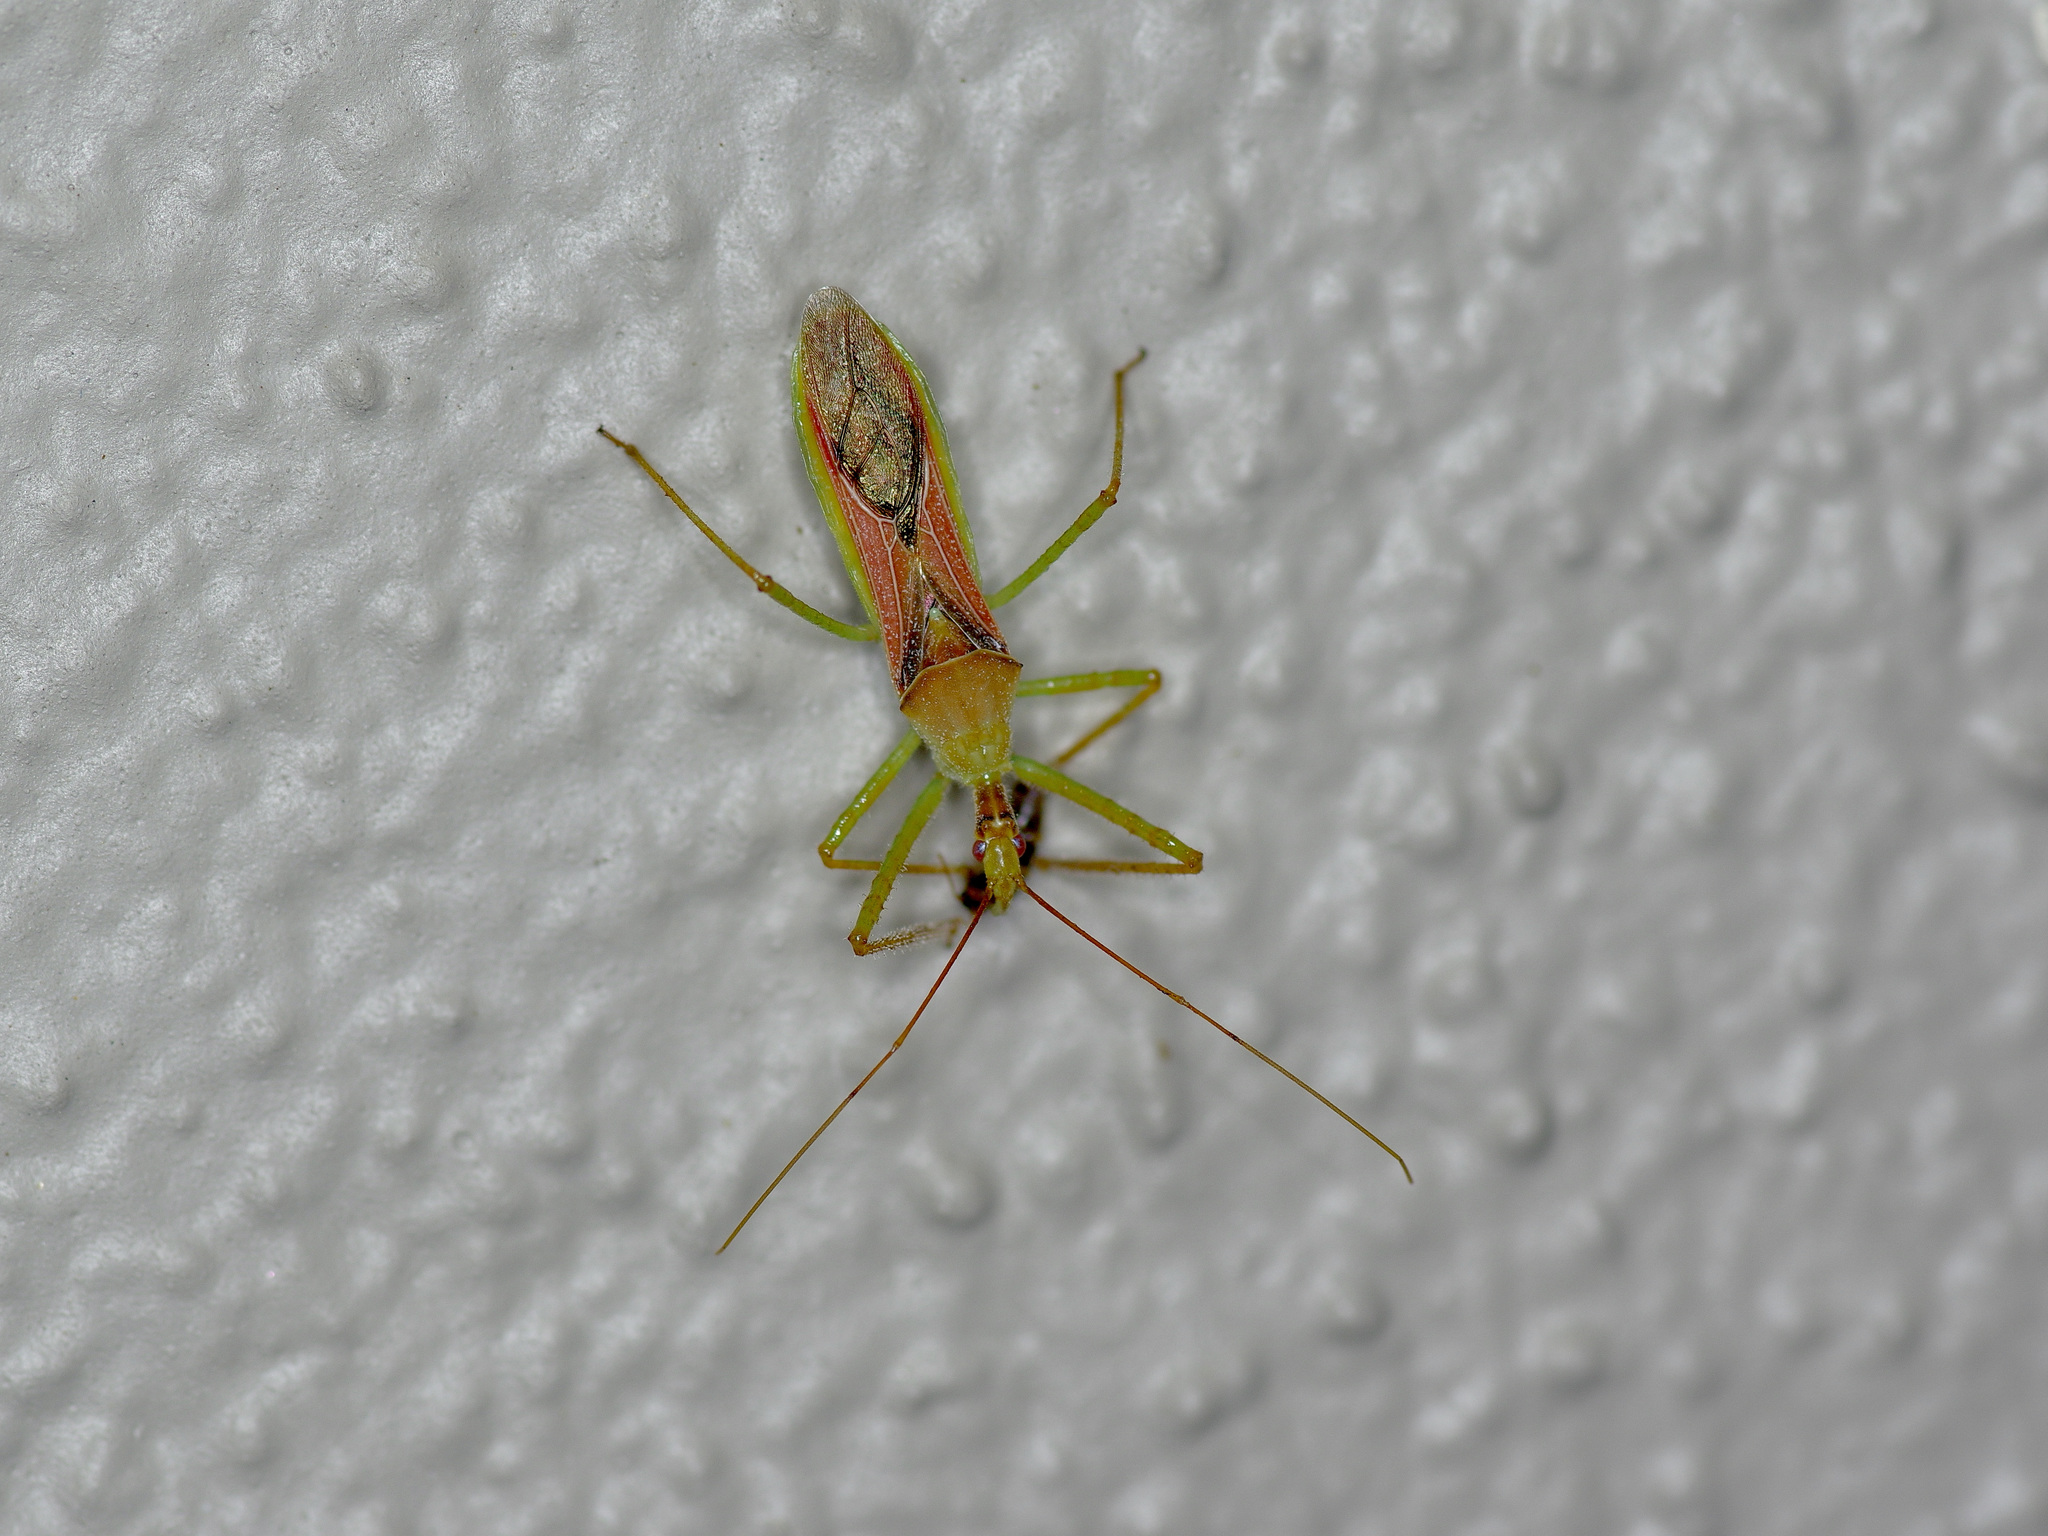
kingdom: Animalia
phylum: Arthropoda
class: Insecta
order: Hemiptera
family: Reduviidae
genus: Zelus
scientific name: Zelus renardii
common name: Assassin bug
